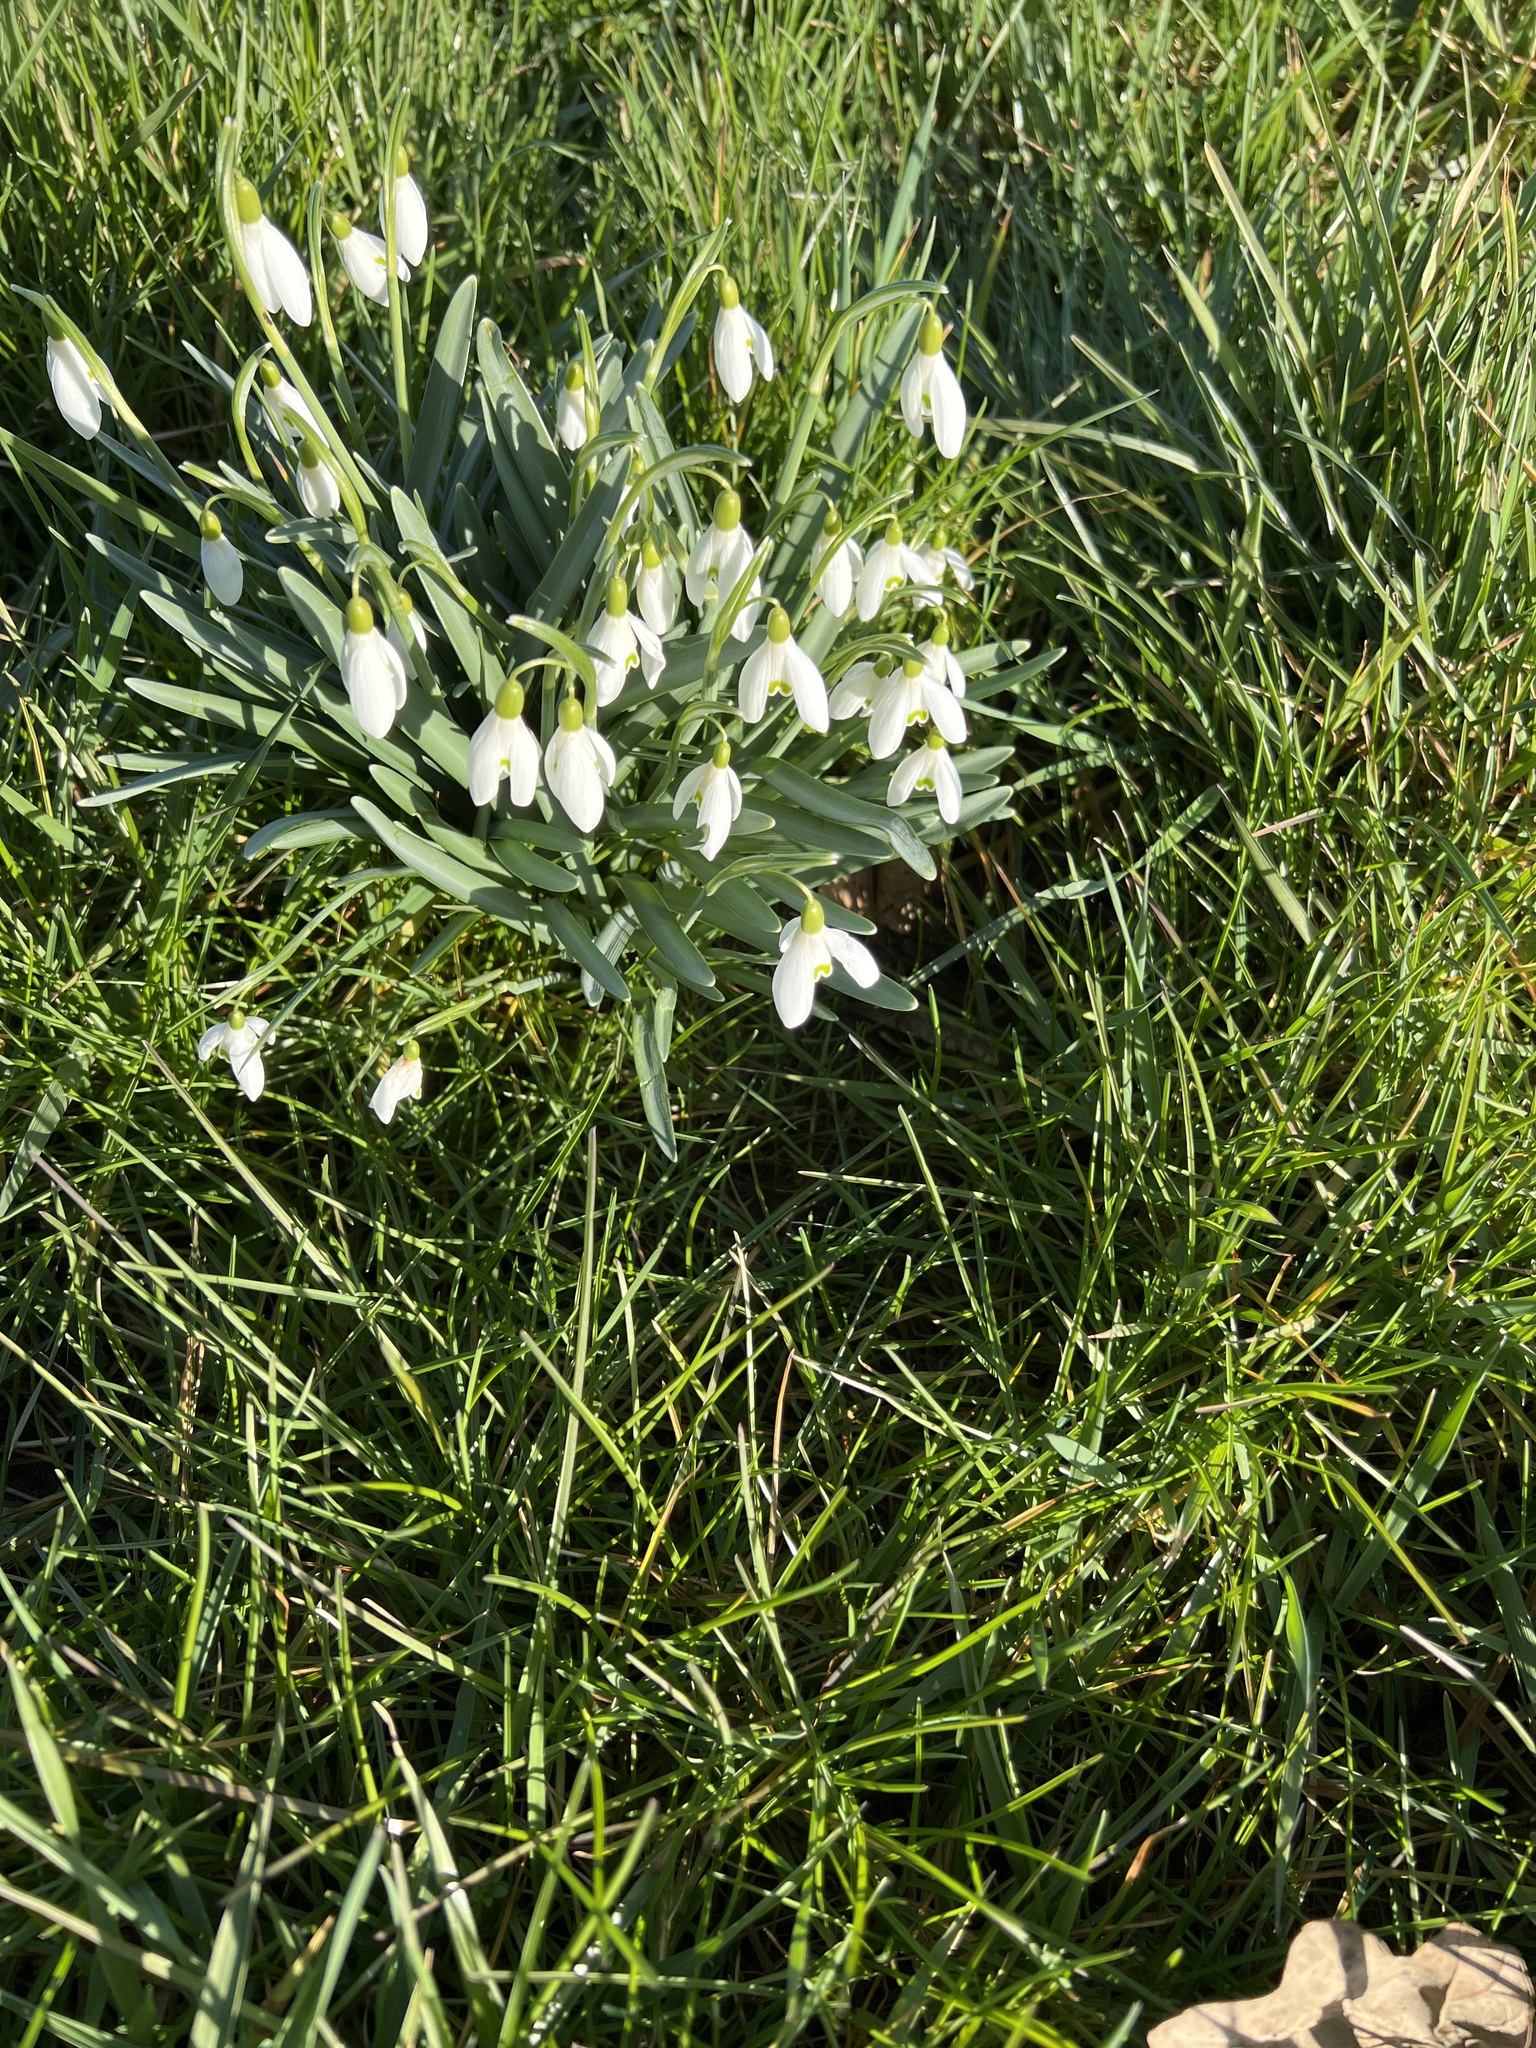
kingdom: Plantae
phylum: Tracheophyta
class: Liliopsida
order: Asparagales
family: Amaryllidaceae
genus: Galanthus
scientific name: Galanthus nivalis
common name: Snowdrop
